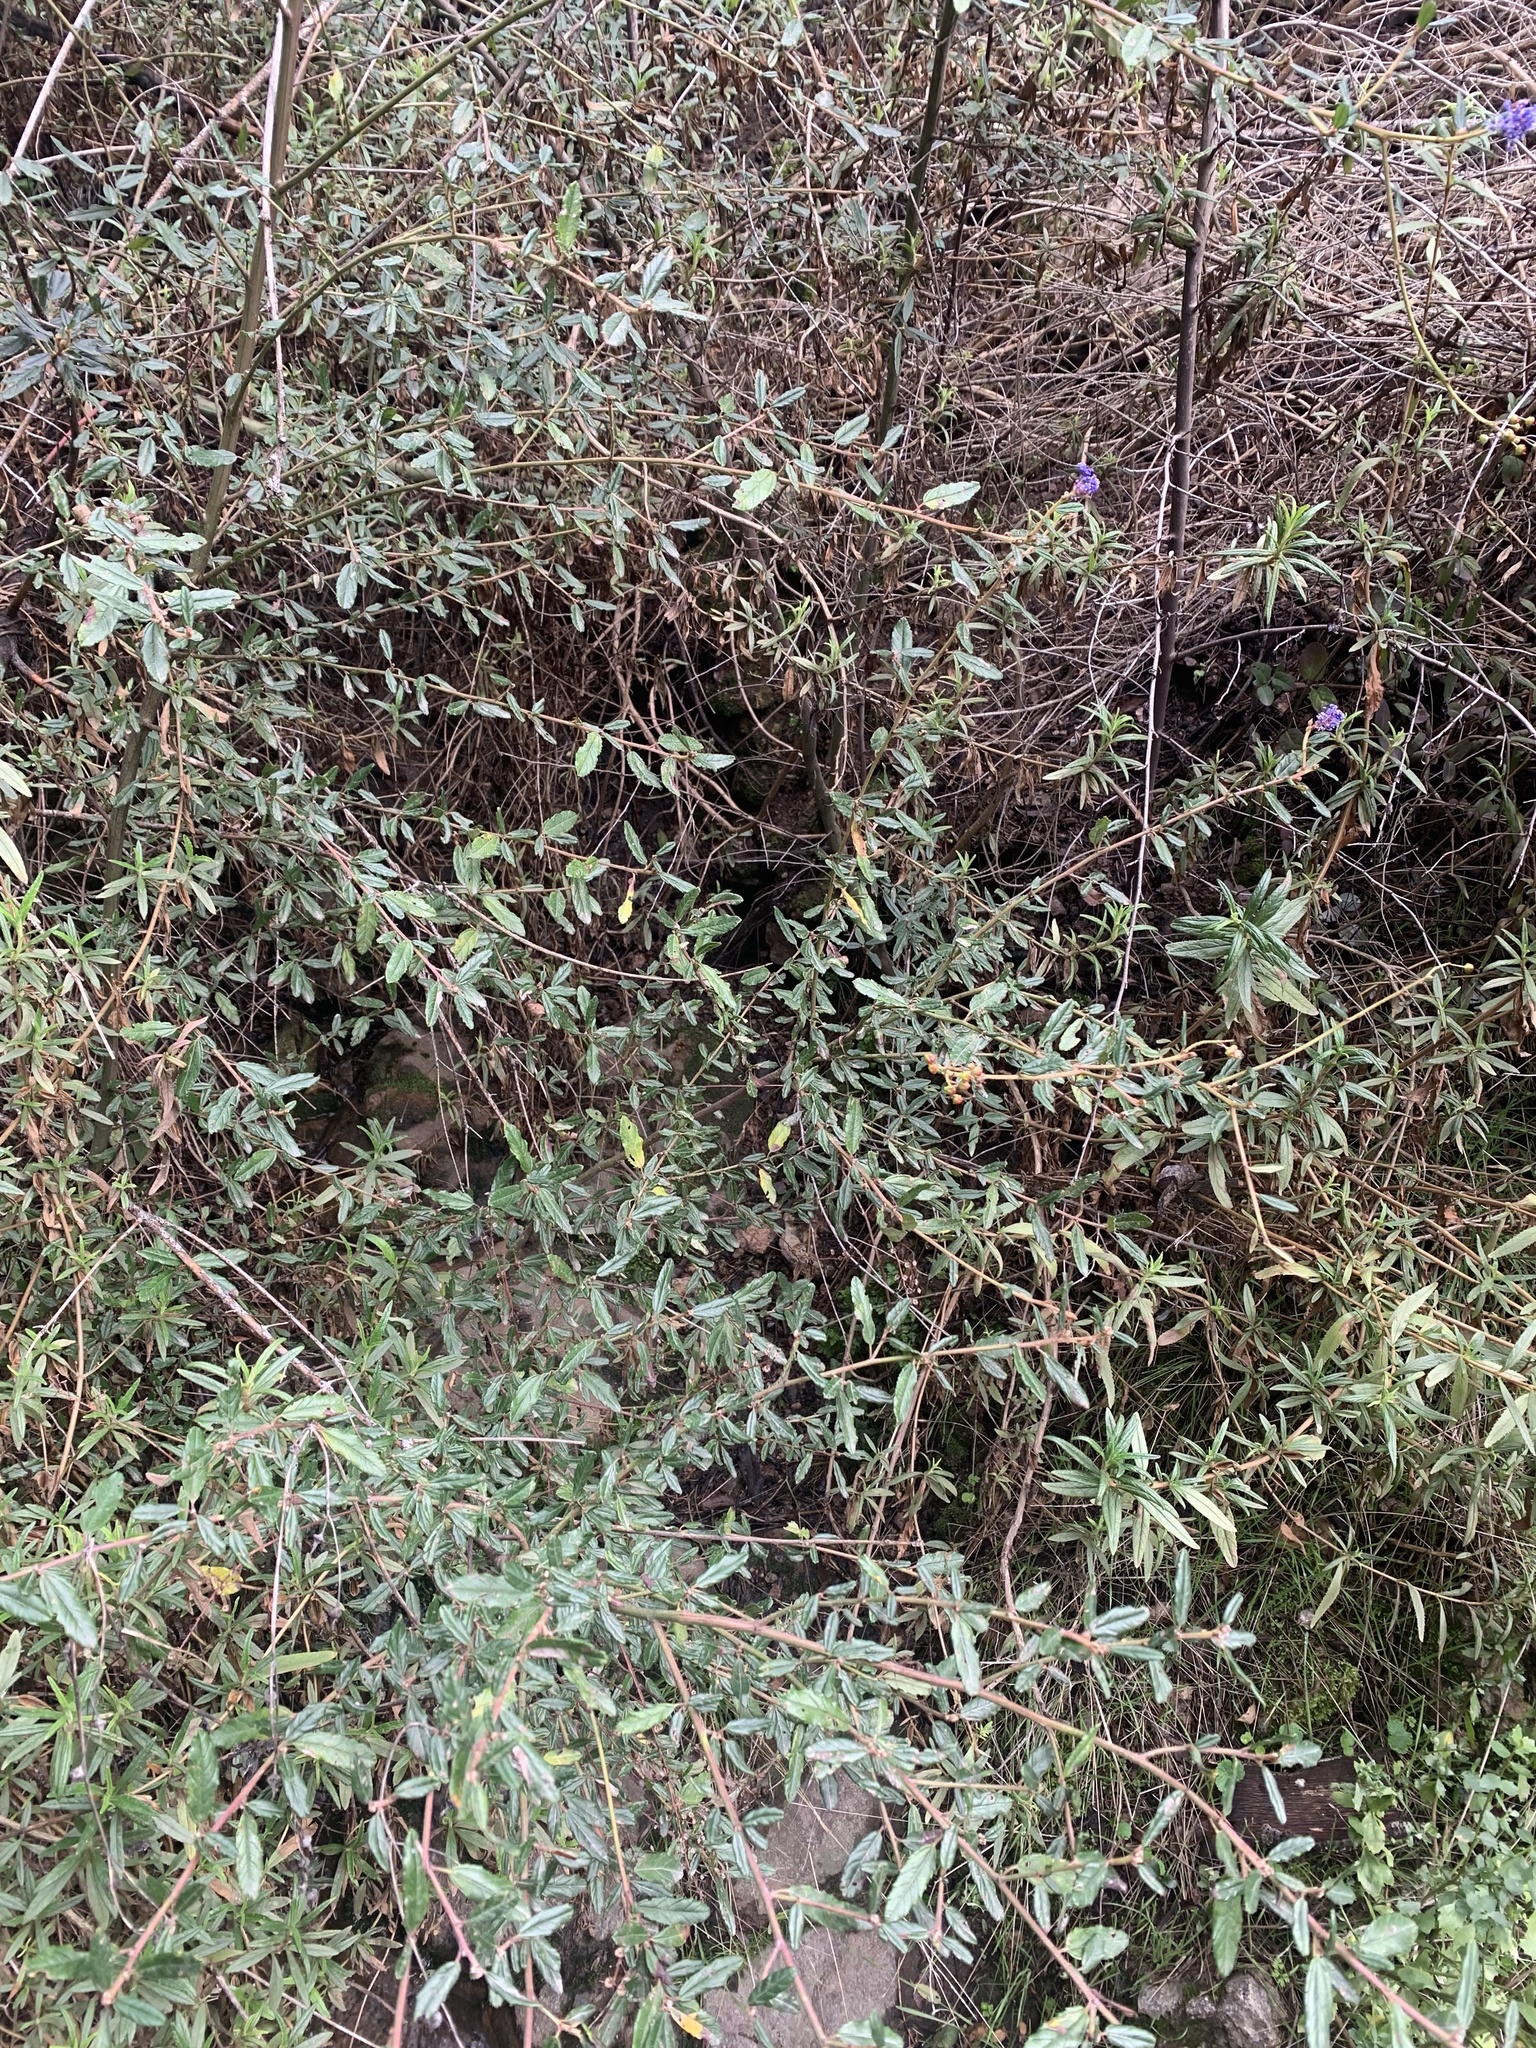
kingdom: Plantae
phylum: Tracheophyta
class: Magnoliopsida
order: Rosales
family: Rhamnaceae
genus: Ceanothus
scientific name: Ceanothus parryi
